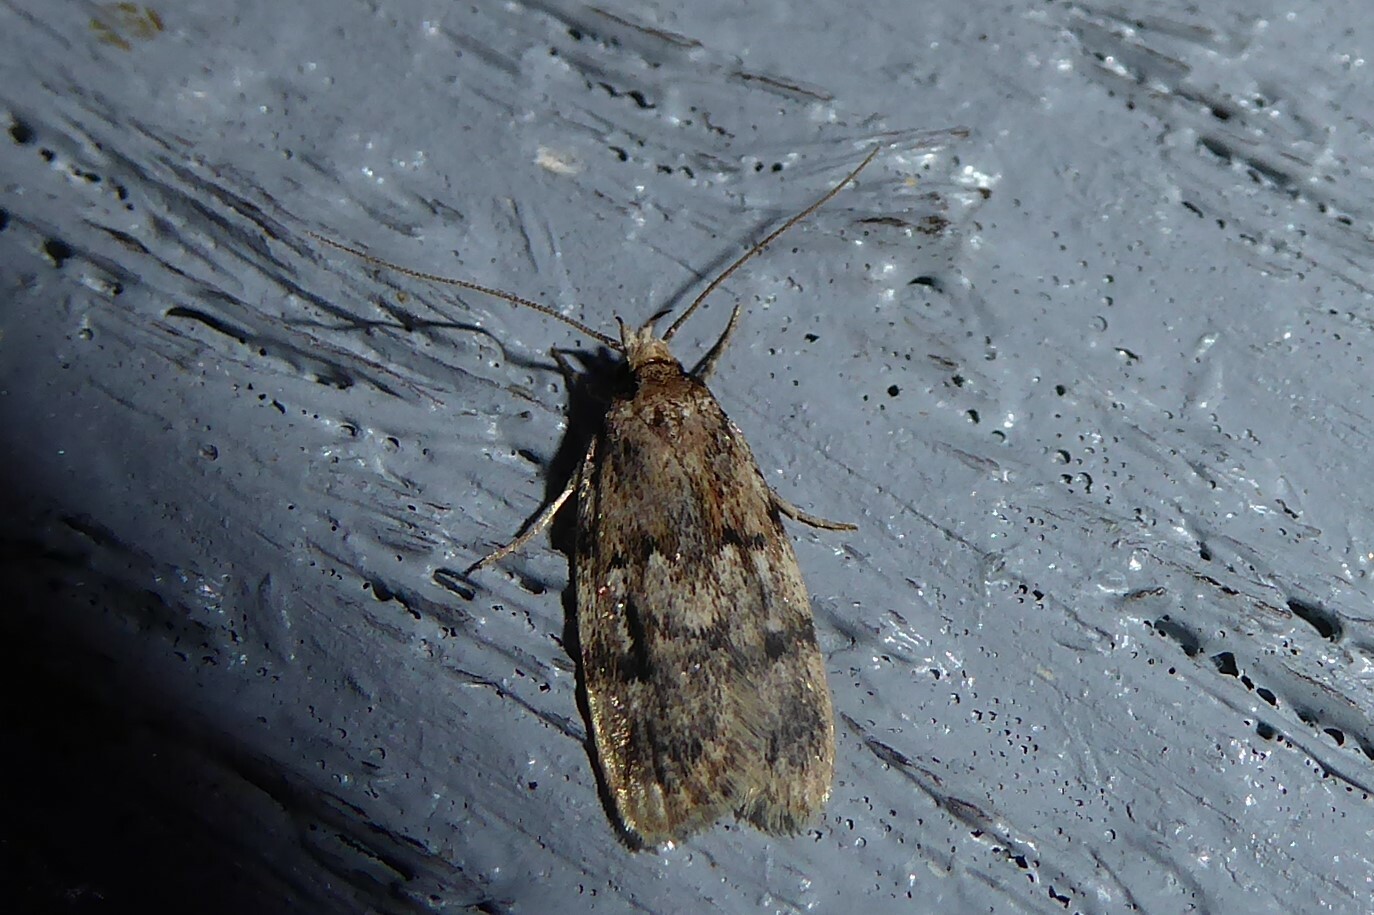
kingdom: Animalia
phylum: Arthropoda
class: Insecta
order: Lepidoptera
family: Oecophoridae
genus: Barea
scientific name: Barea exarcha
